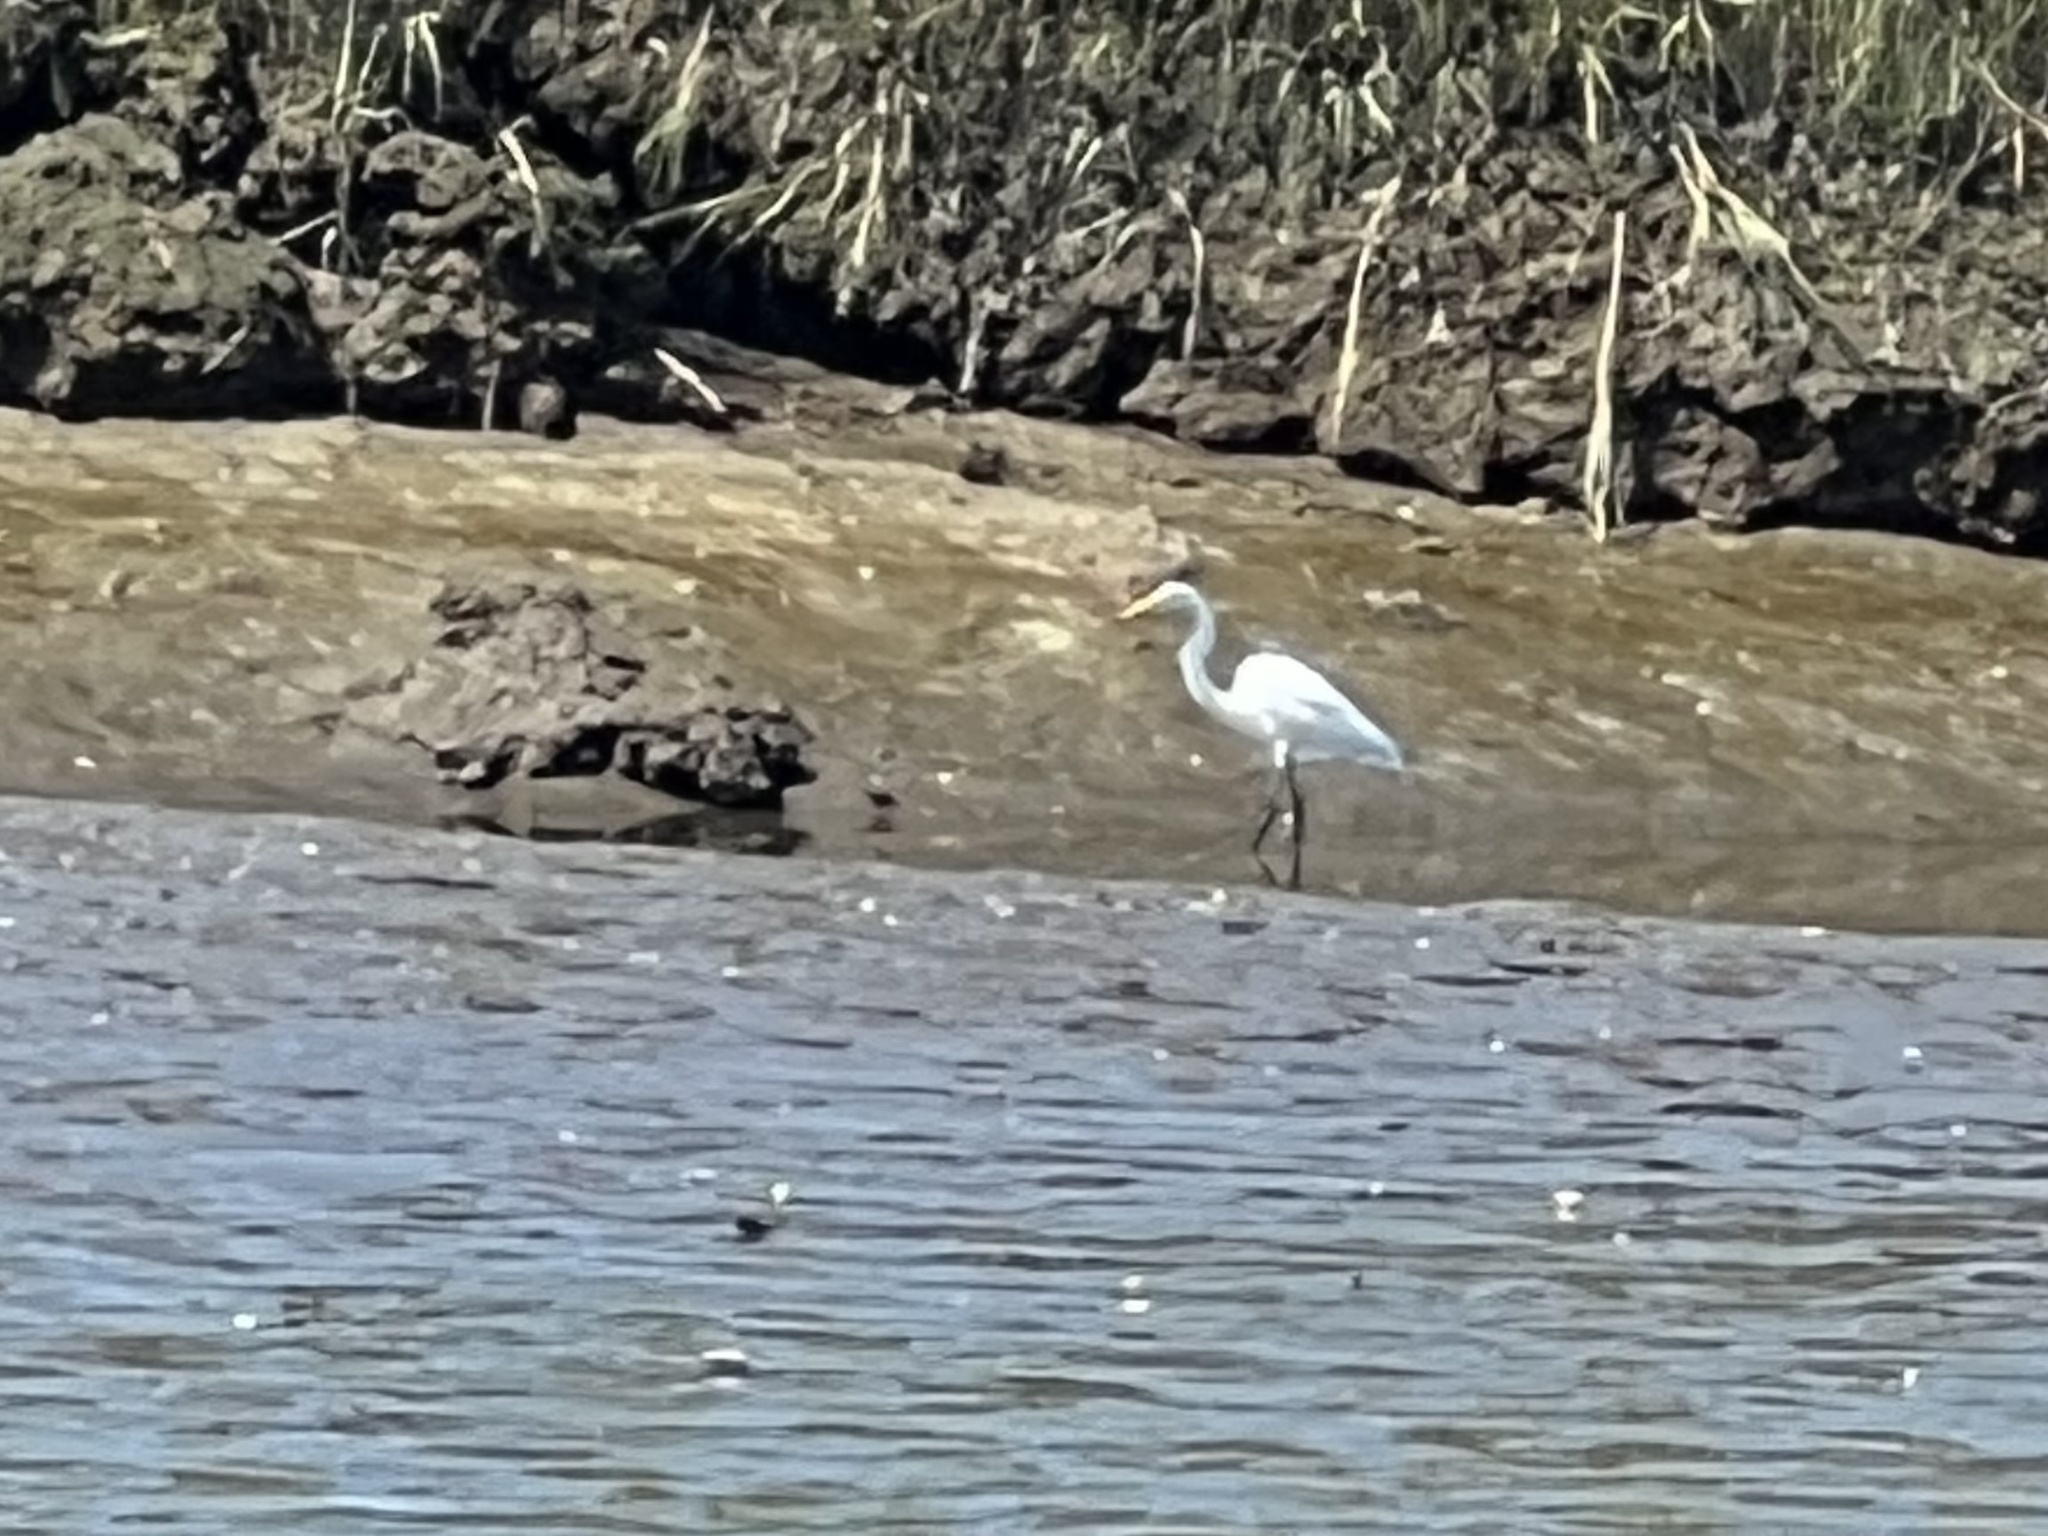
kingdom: Animalia
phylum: Chordata
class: Aves
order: Pelecaniformes
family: Ardeidae
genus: Ardea
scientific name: Ardea alba
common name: Great egret
